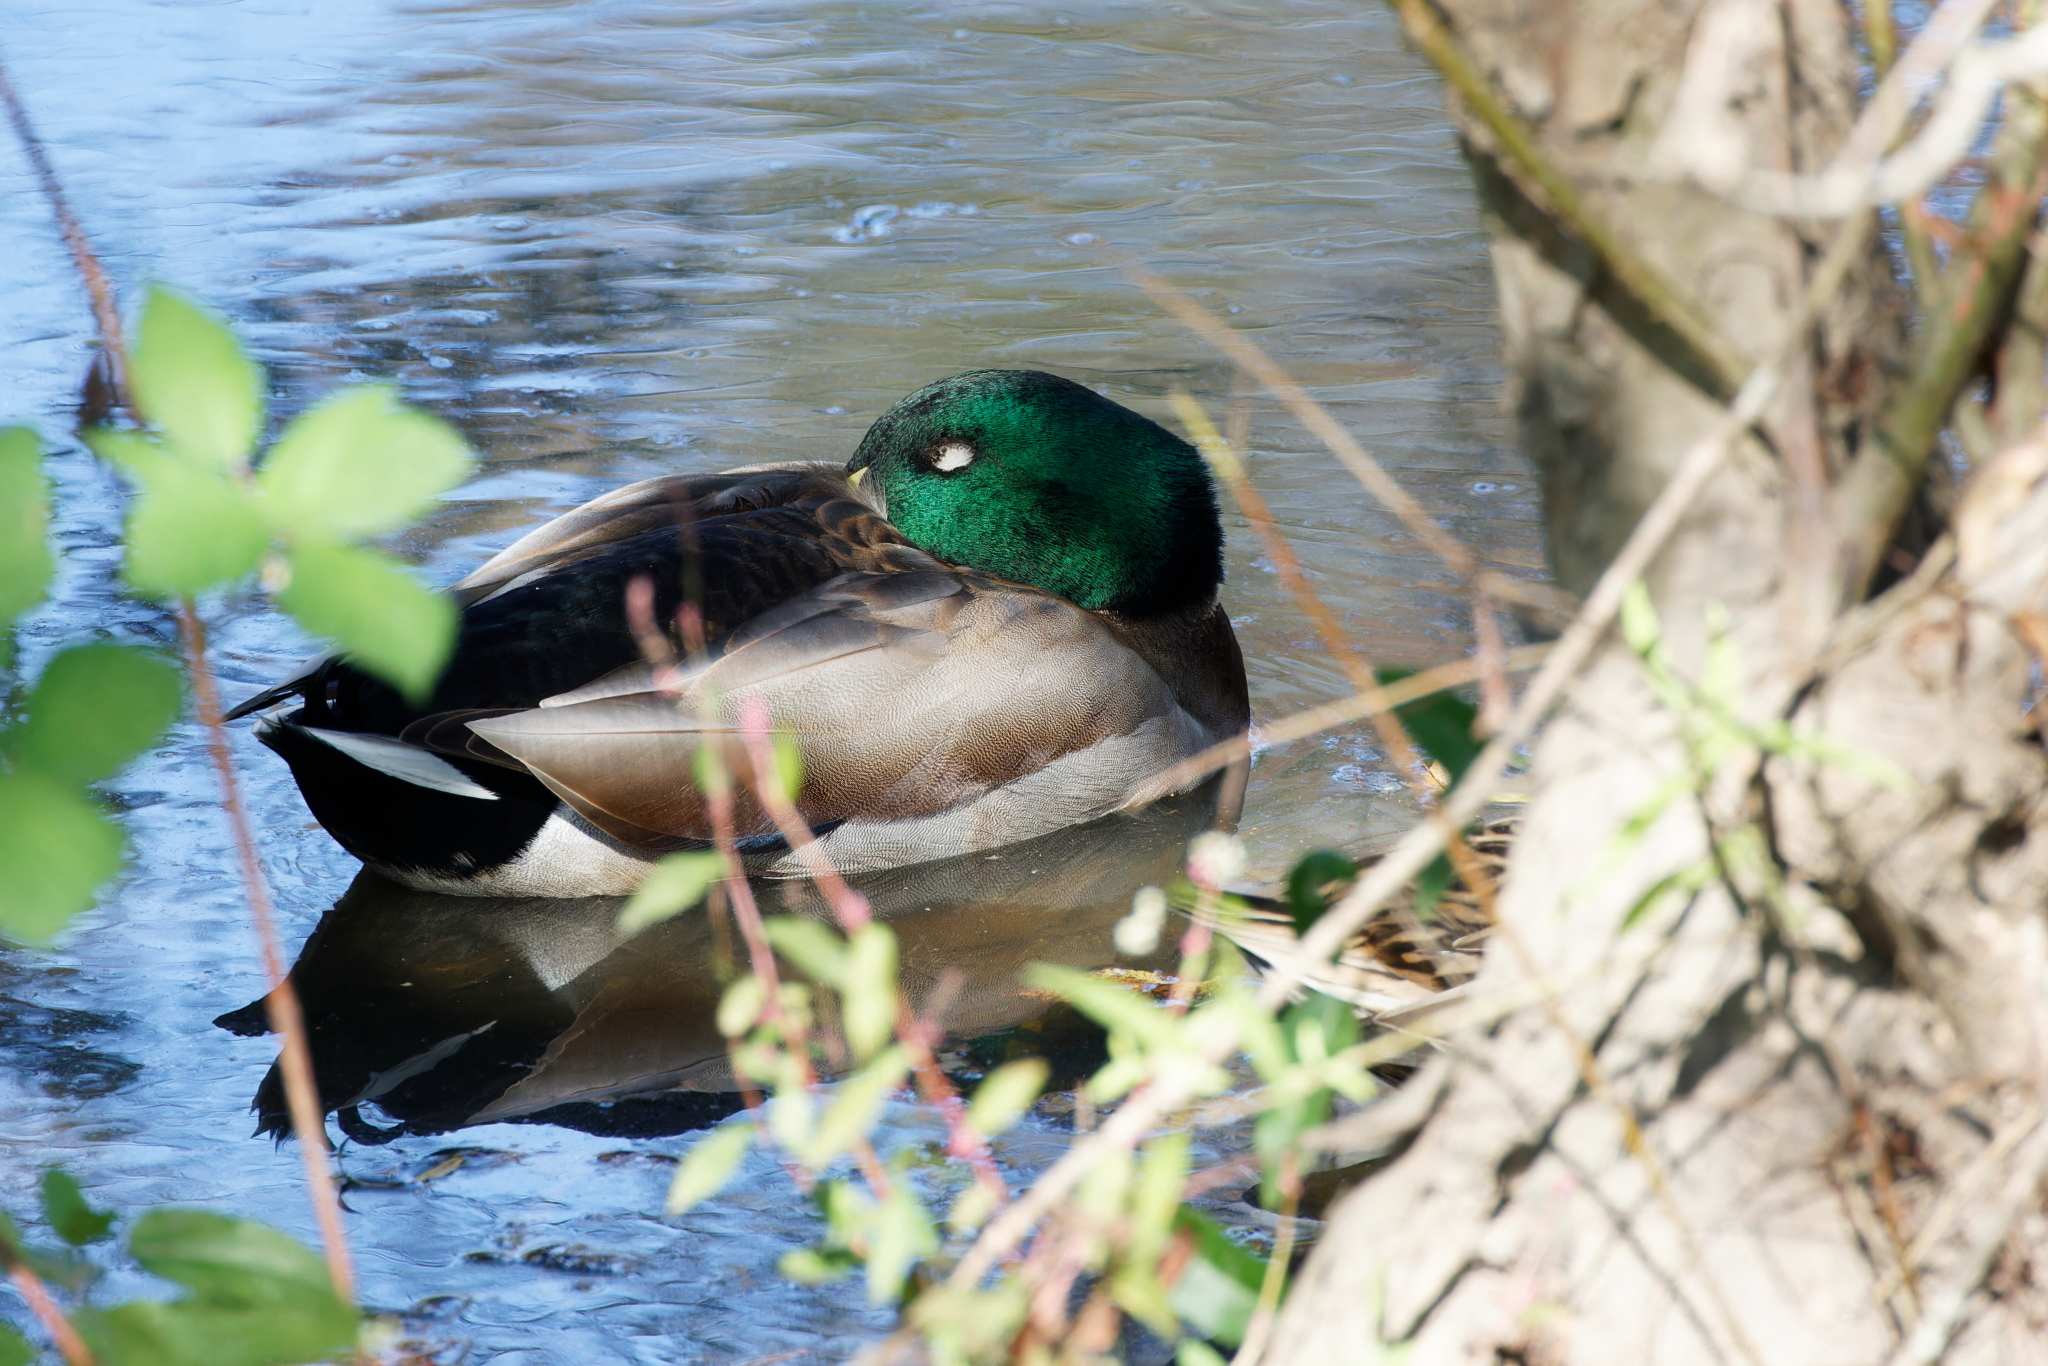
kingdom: Animalia
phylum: Chordata
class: Aves
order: Anseriformes
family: Anatidae
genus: Anas
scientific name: Anas platyrhynchos
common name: Mallard
